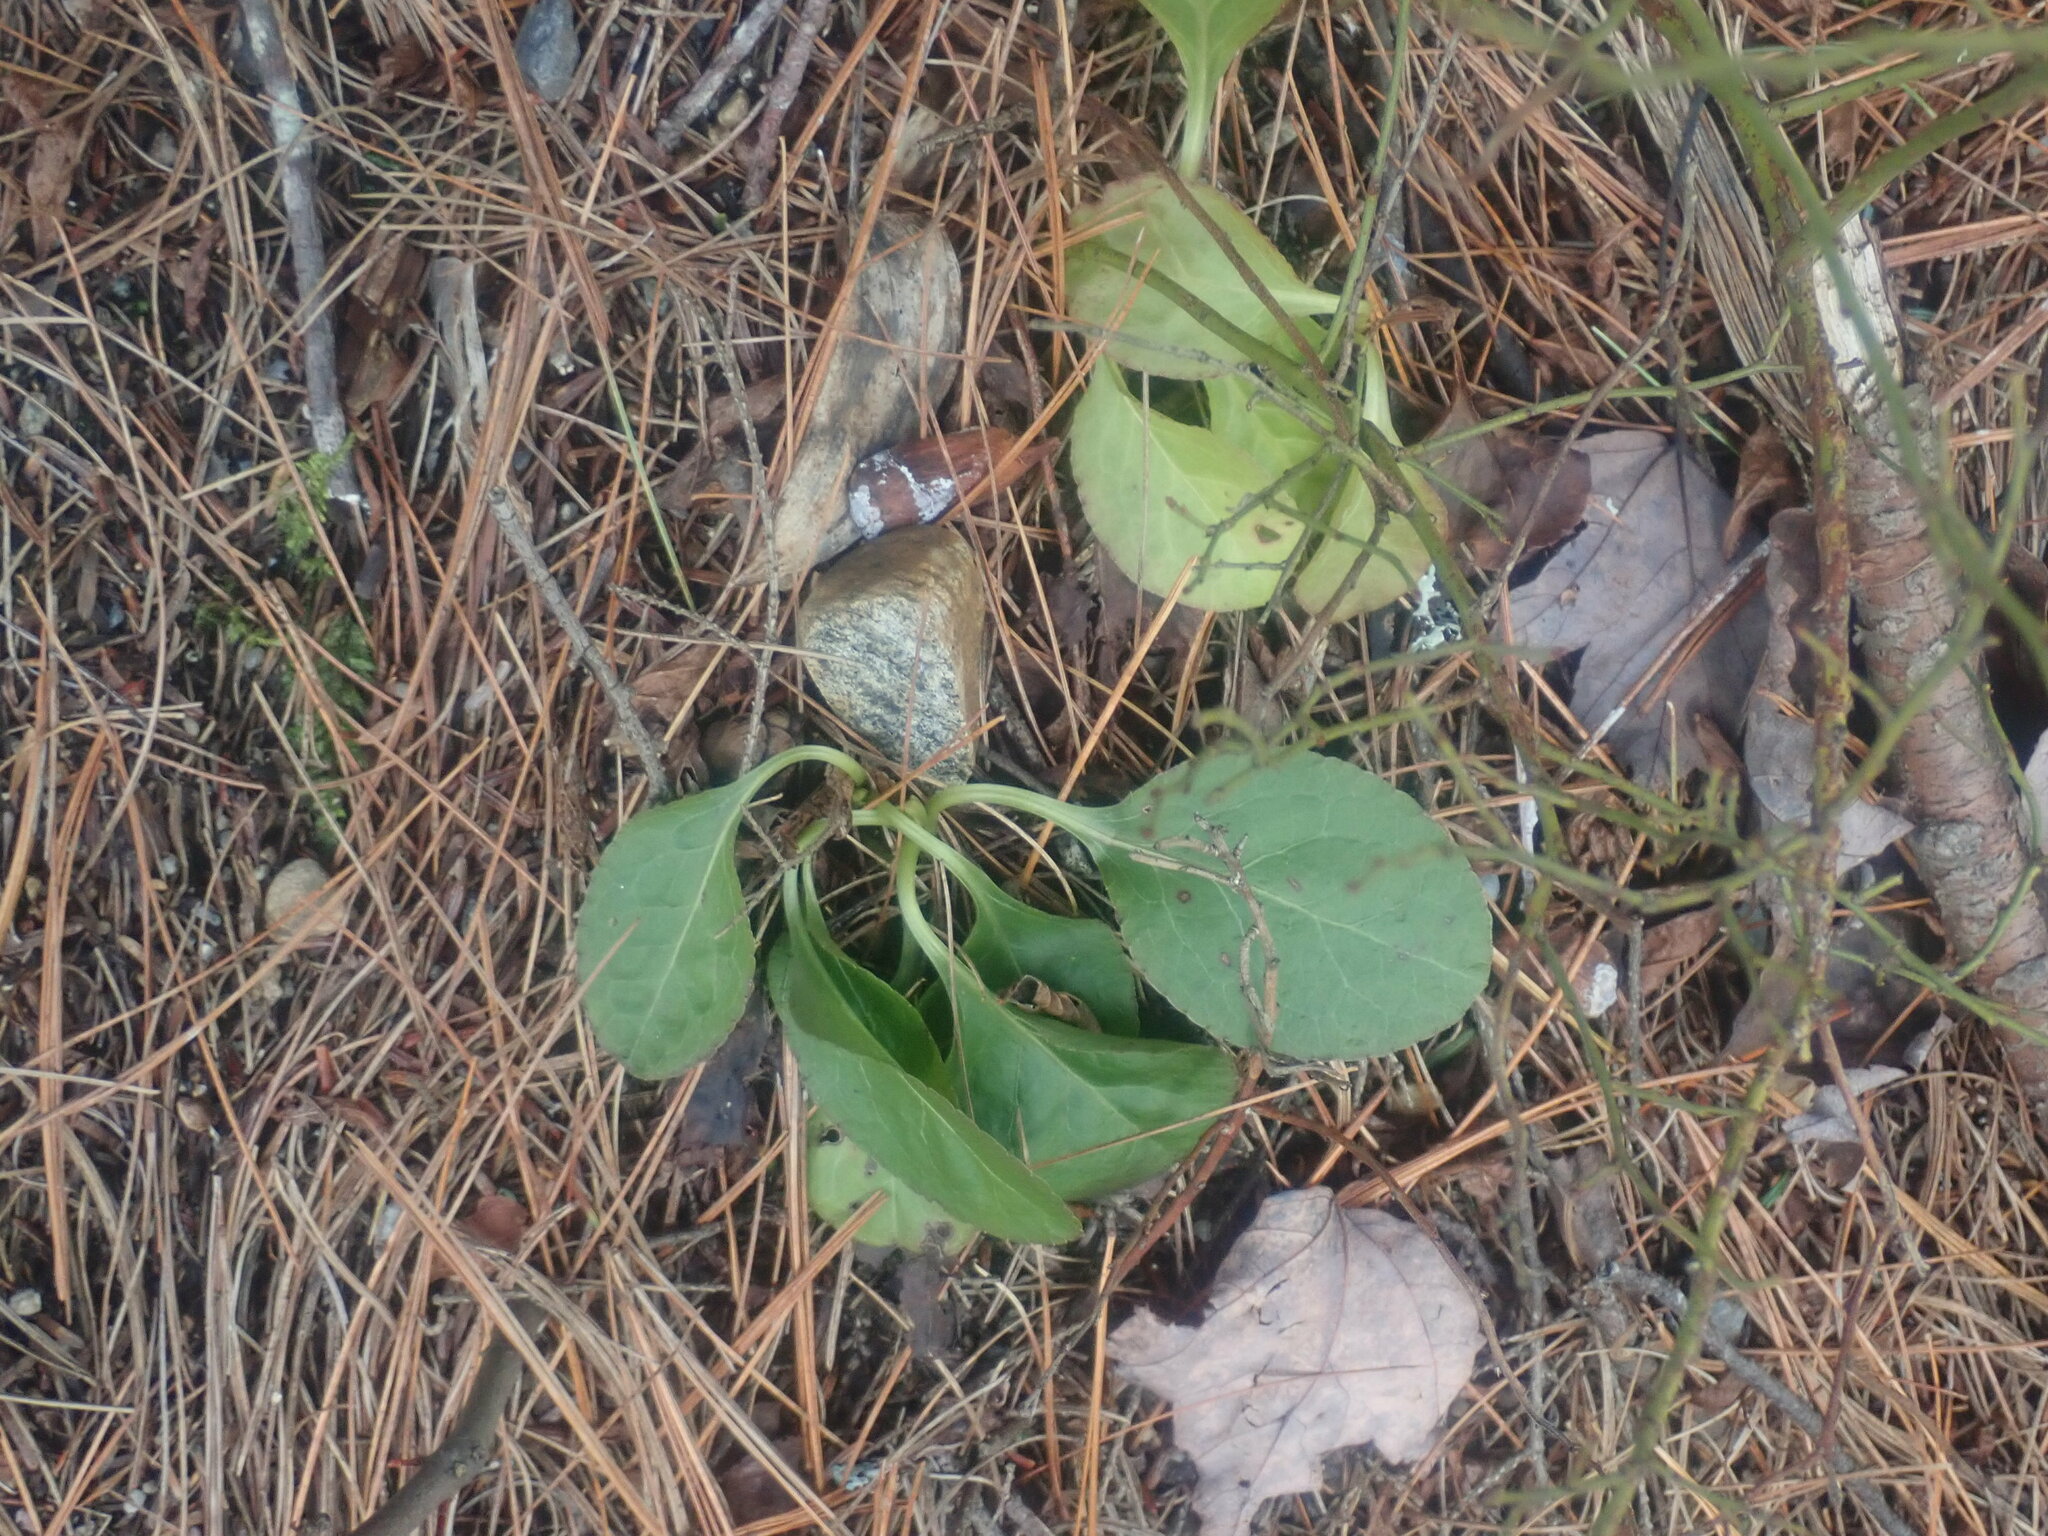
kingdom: Plantae
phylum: Tracheophyta
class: Magnoliopsida
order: Ericales
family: Ericaceae
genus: Pyrola
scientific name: Pyrola elliptica
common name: Shinleaf
